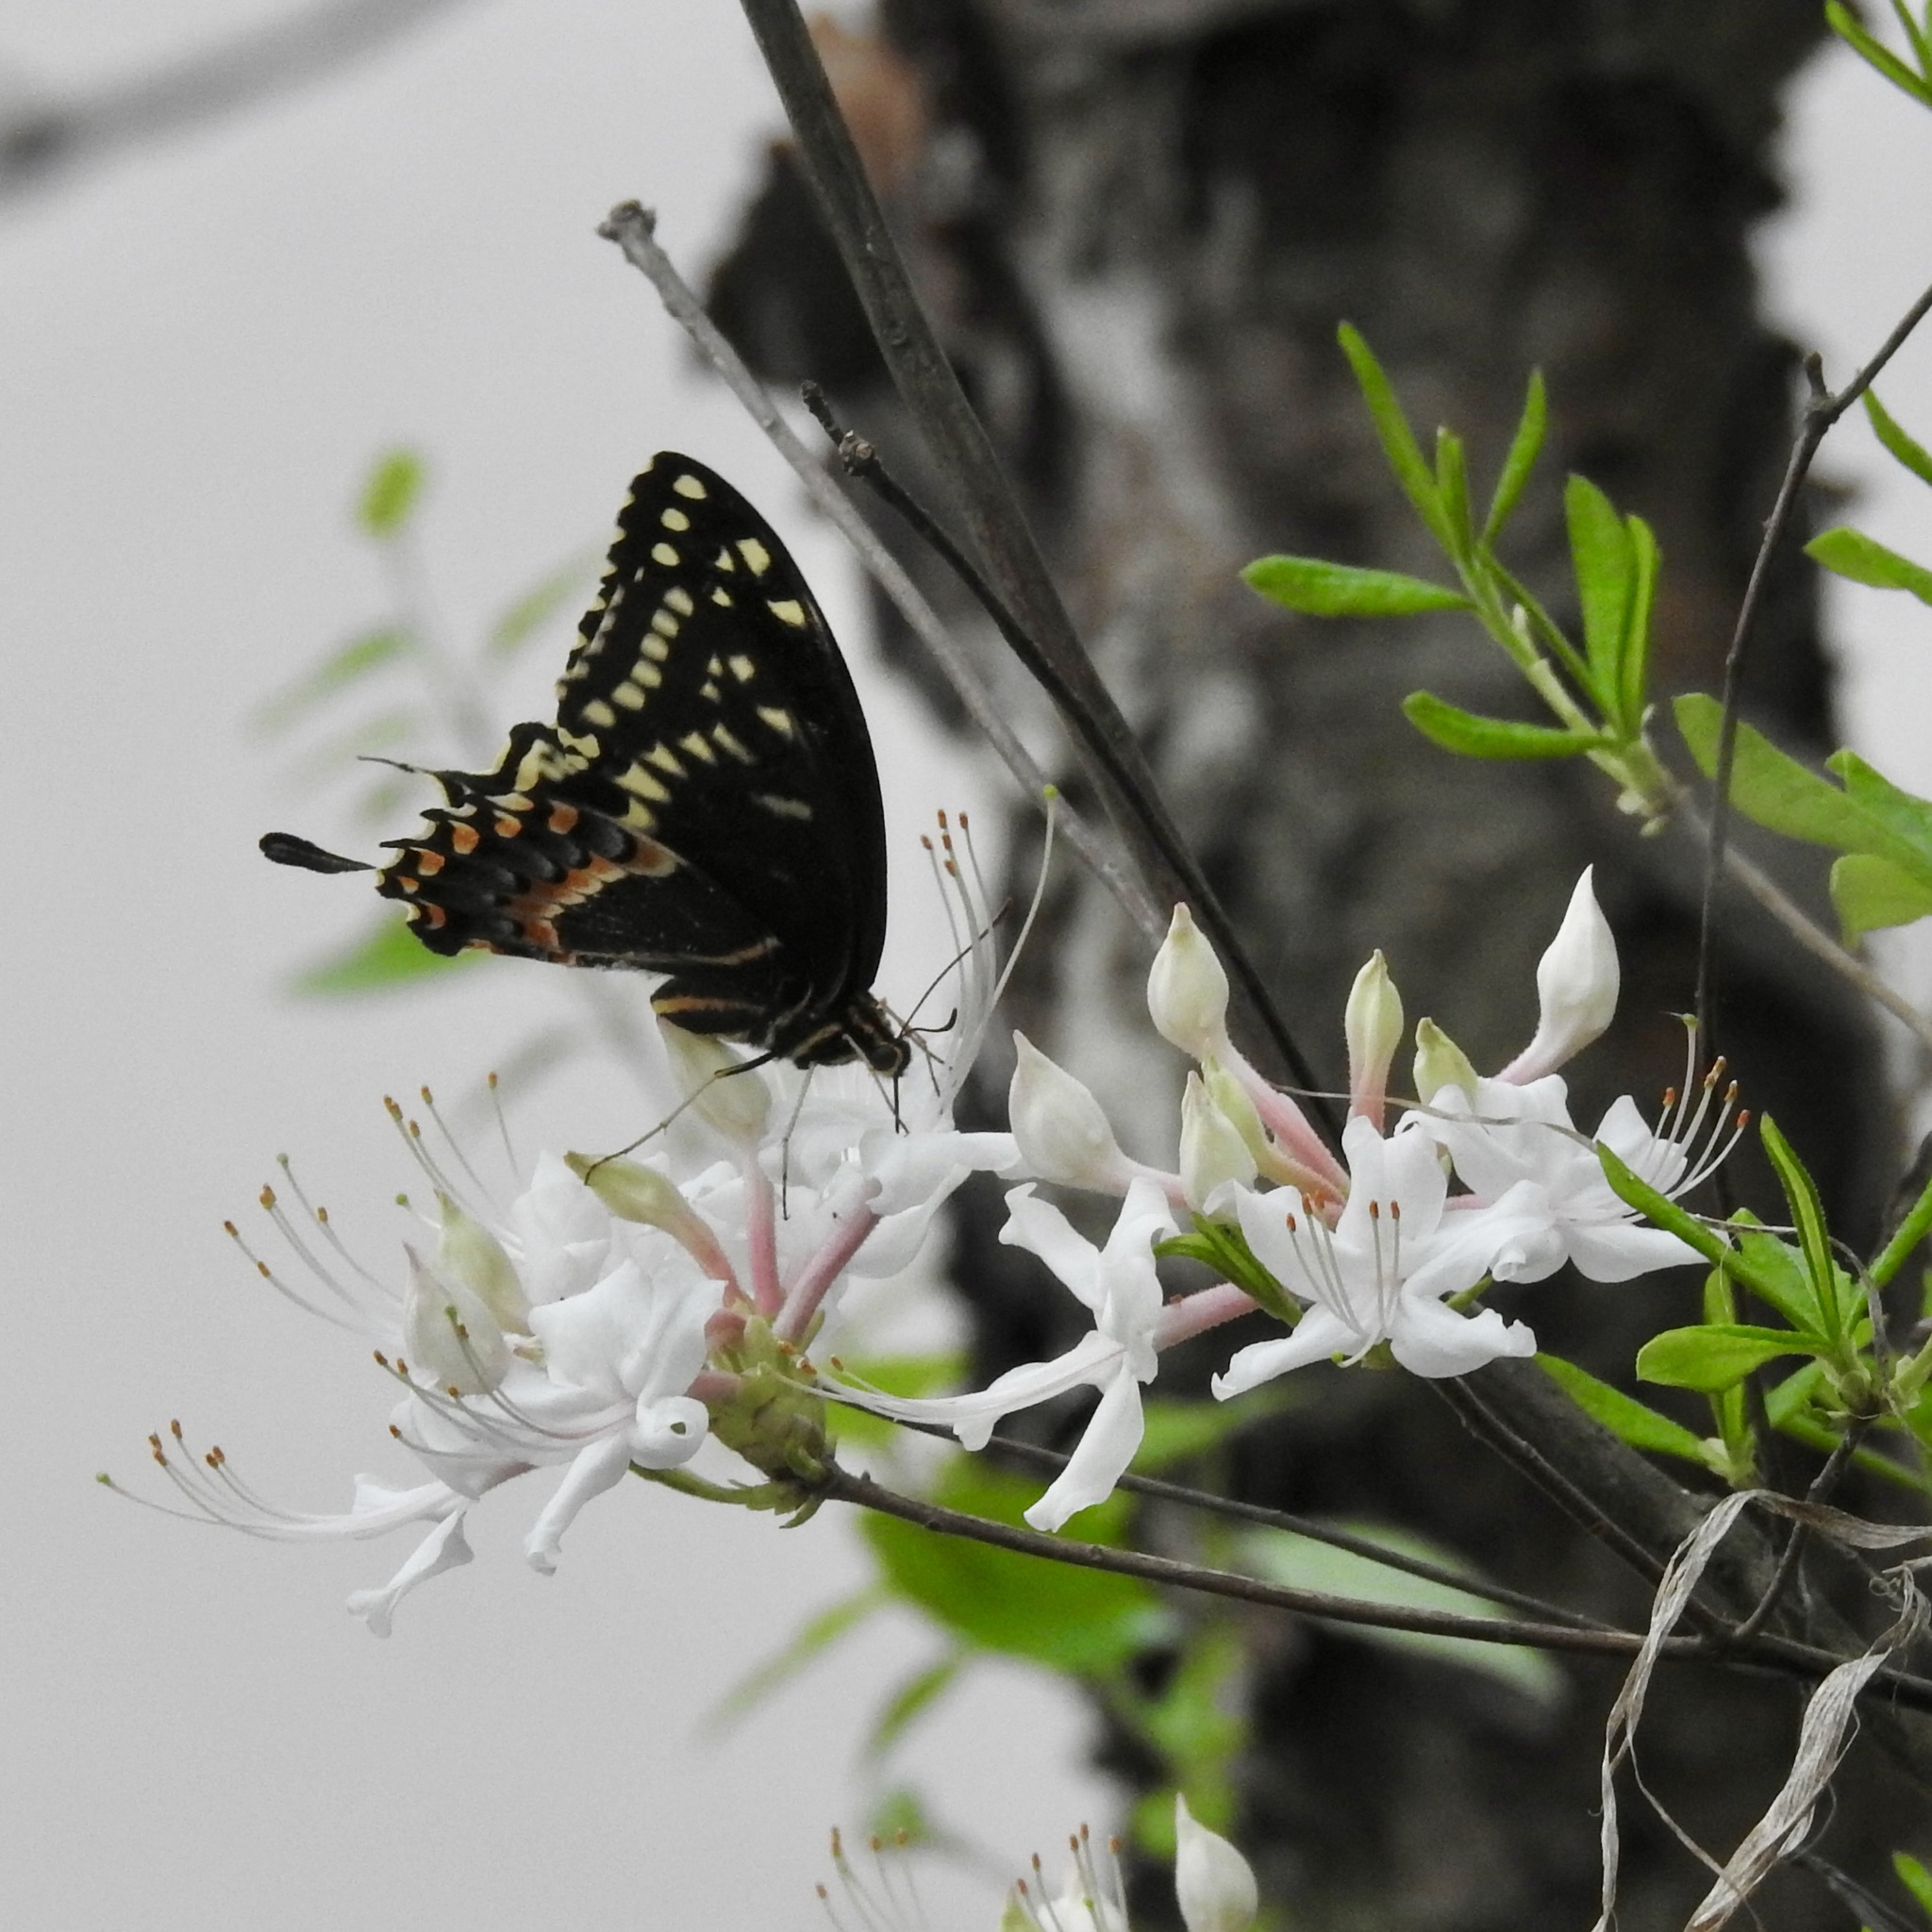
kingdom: Animalia
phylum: Arthropoda
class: Insecta
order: Lepidoptera
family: Papilionidae
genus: Papilio
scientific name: Papilio palamedes
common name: Palamedes swallowtail
